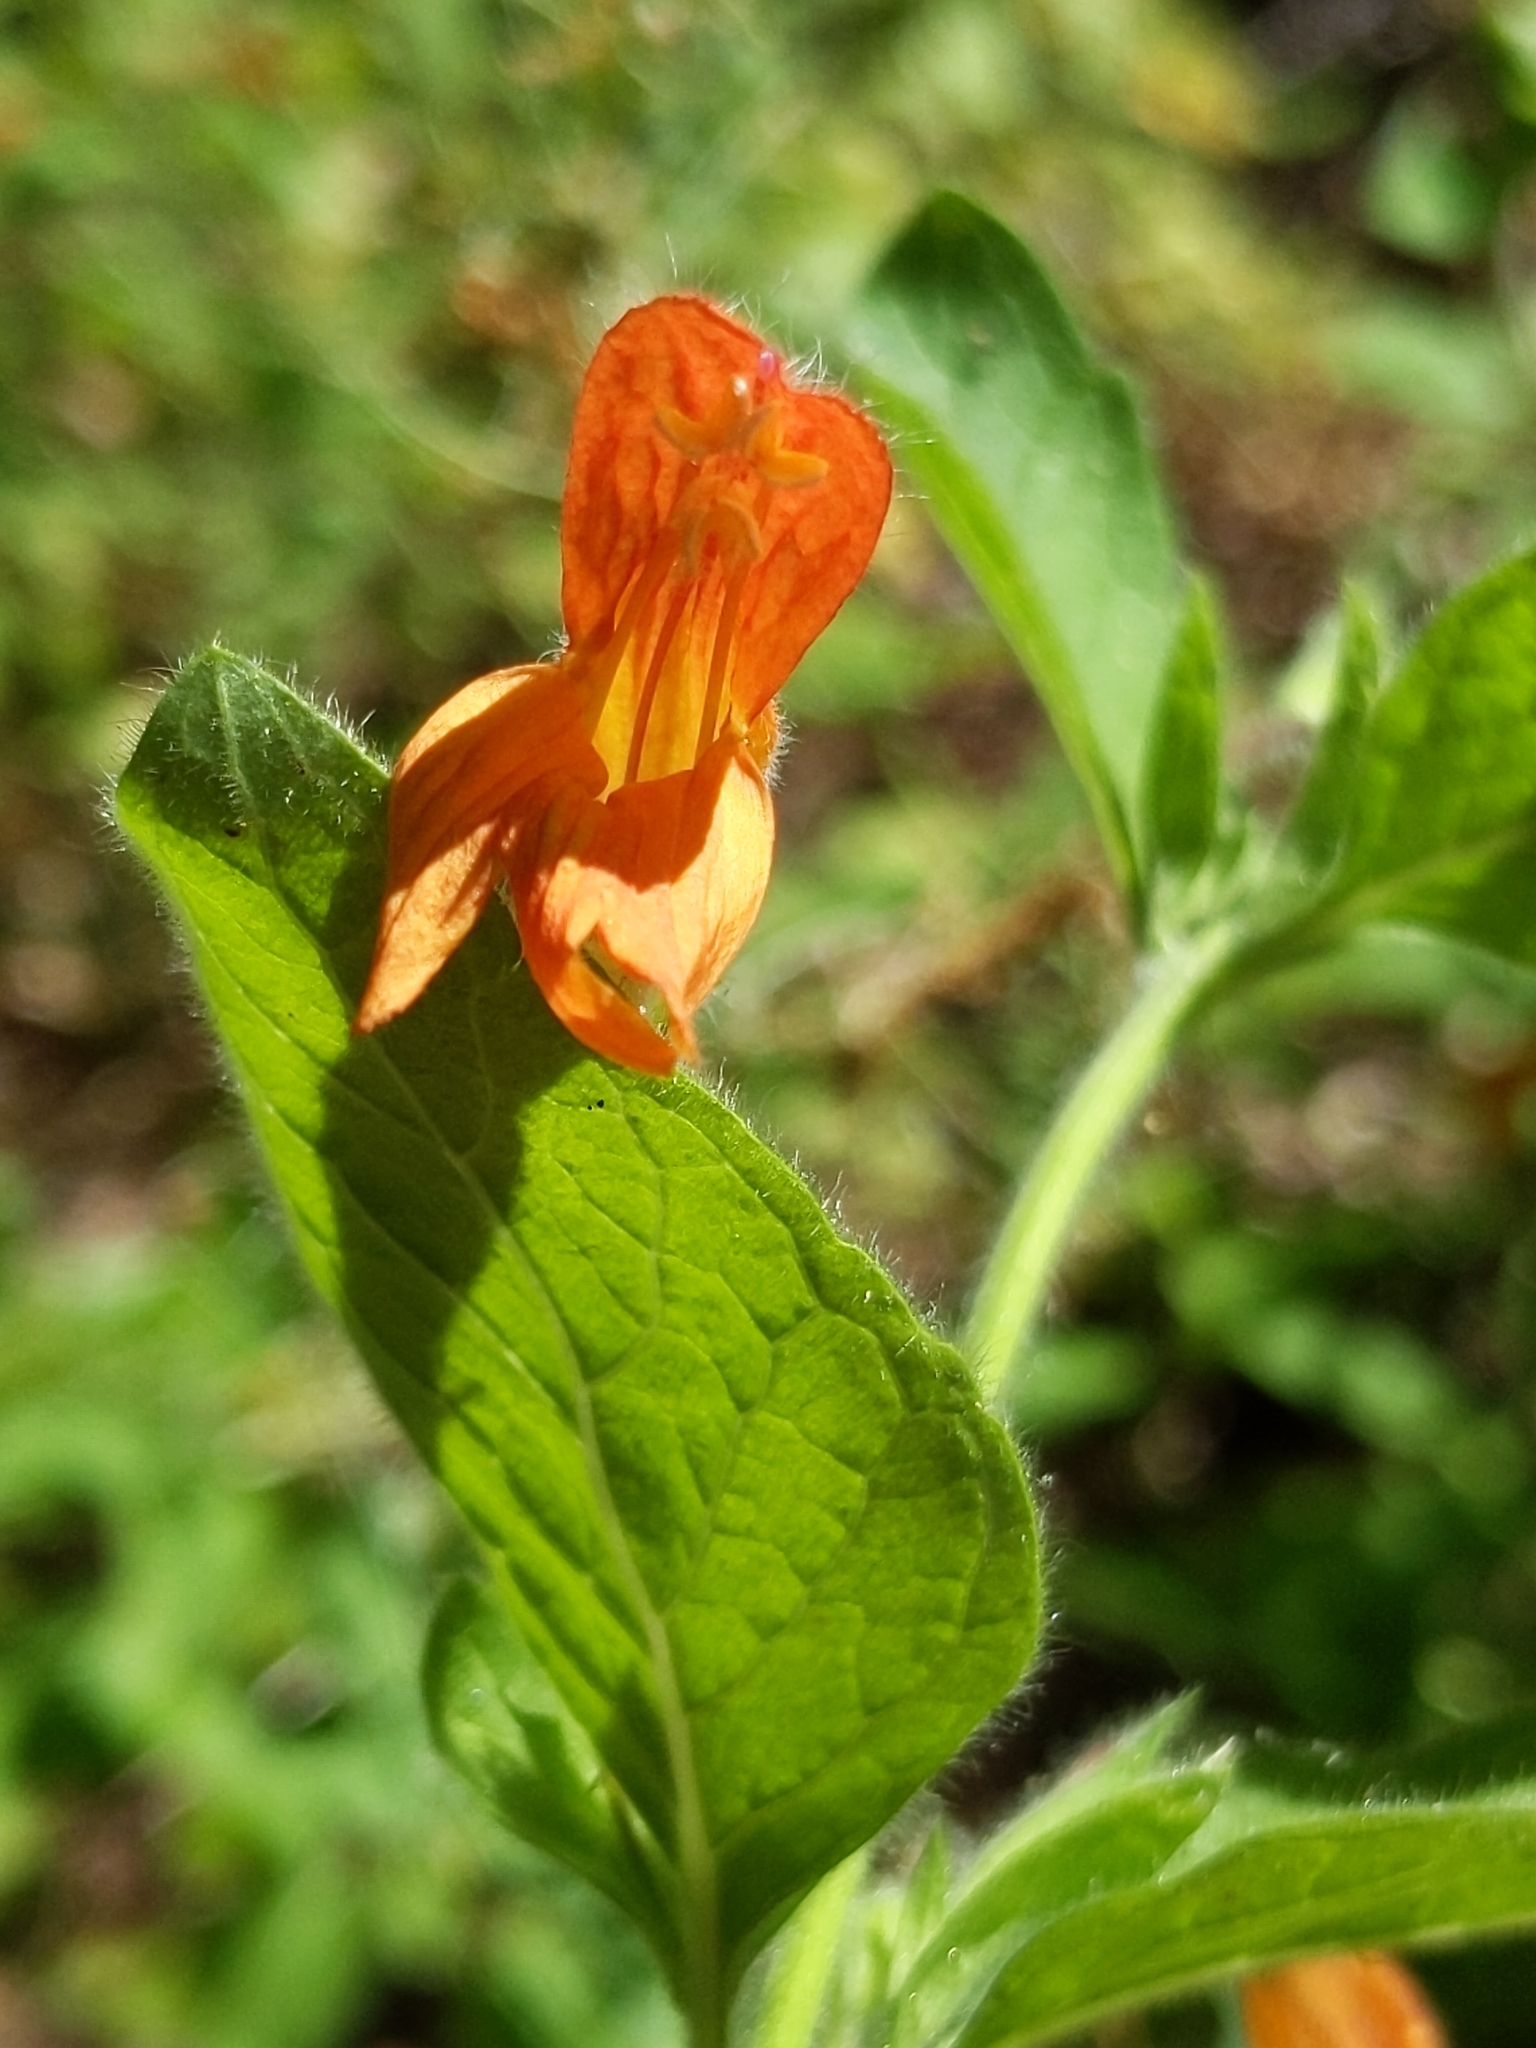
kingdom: Plantae
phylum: Tracheophyta
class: Magnoliopsida
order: Lamiales
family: Lamiaceae
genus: Clinopodium
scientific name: Clinopodium mimuloides
